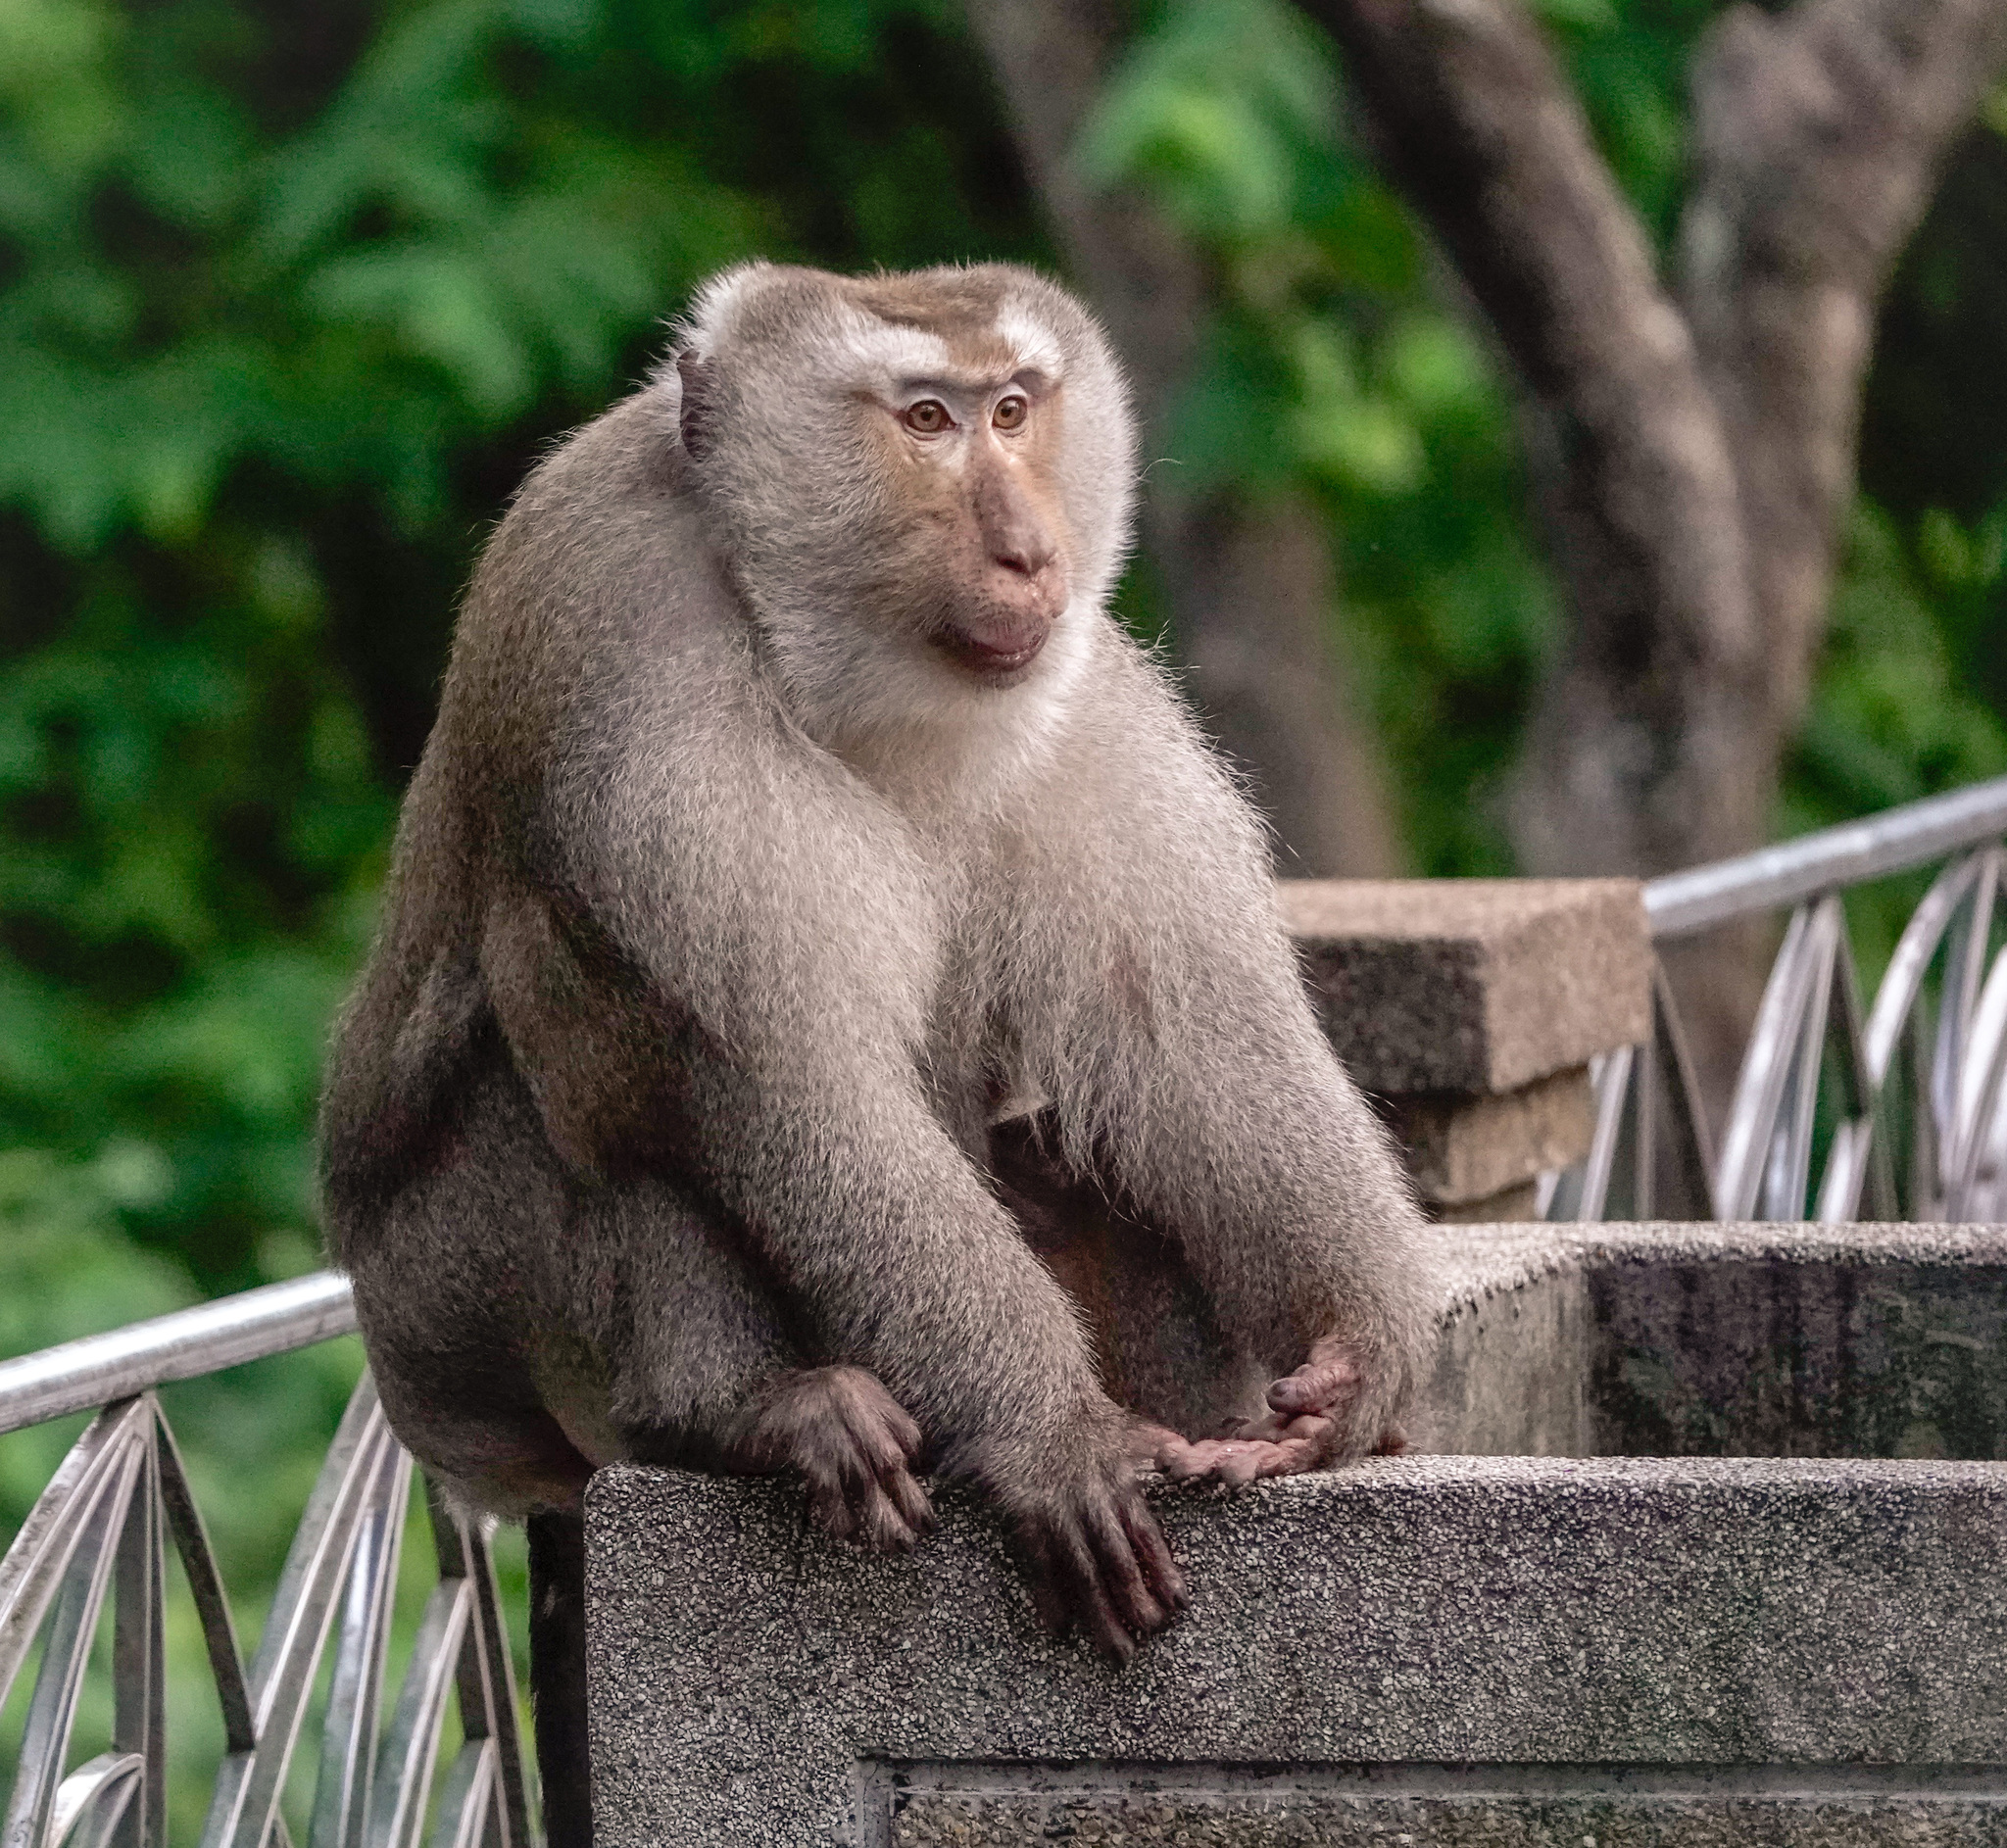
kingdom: Animalia
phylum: Chordata
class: Mammalia
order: Primates
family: Cercopithecidae
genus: Macaca
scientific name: Macaca leonina
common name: Northern pig-tailed macaque
